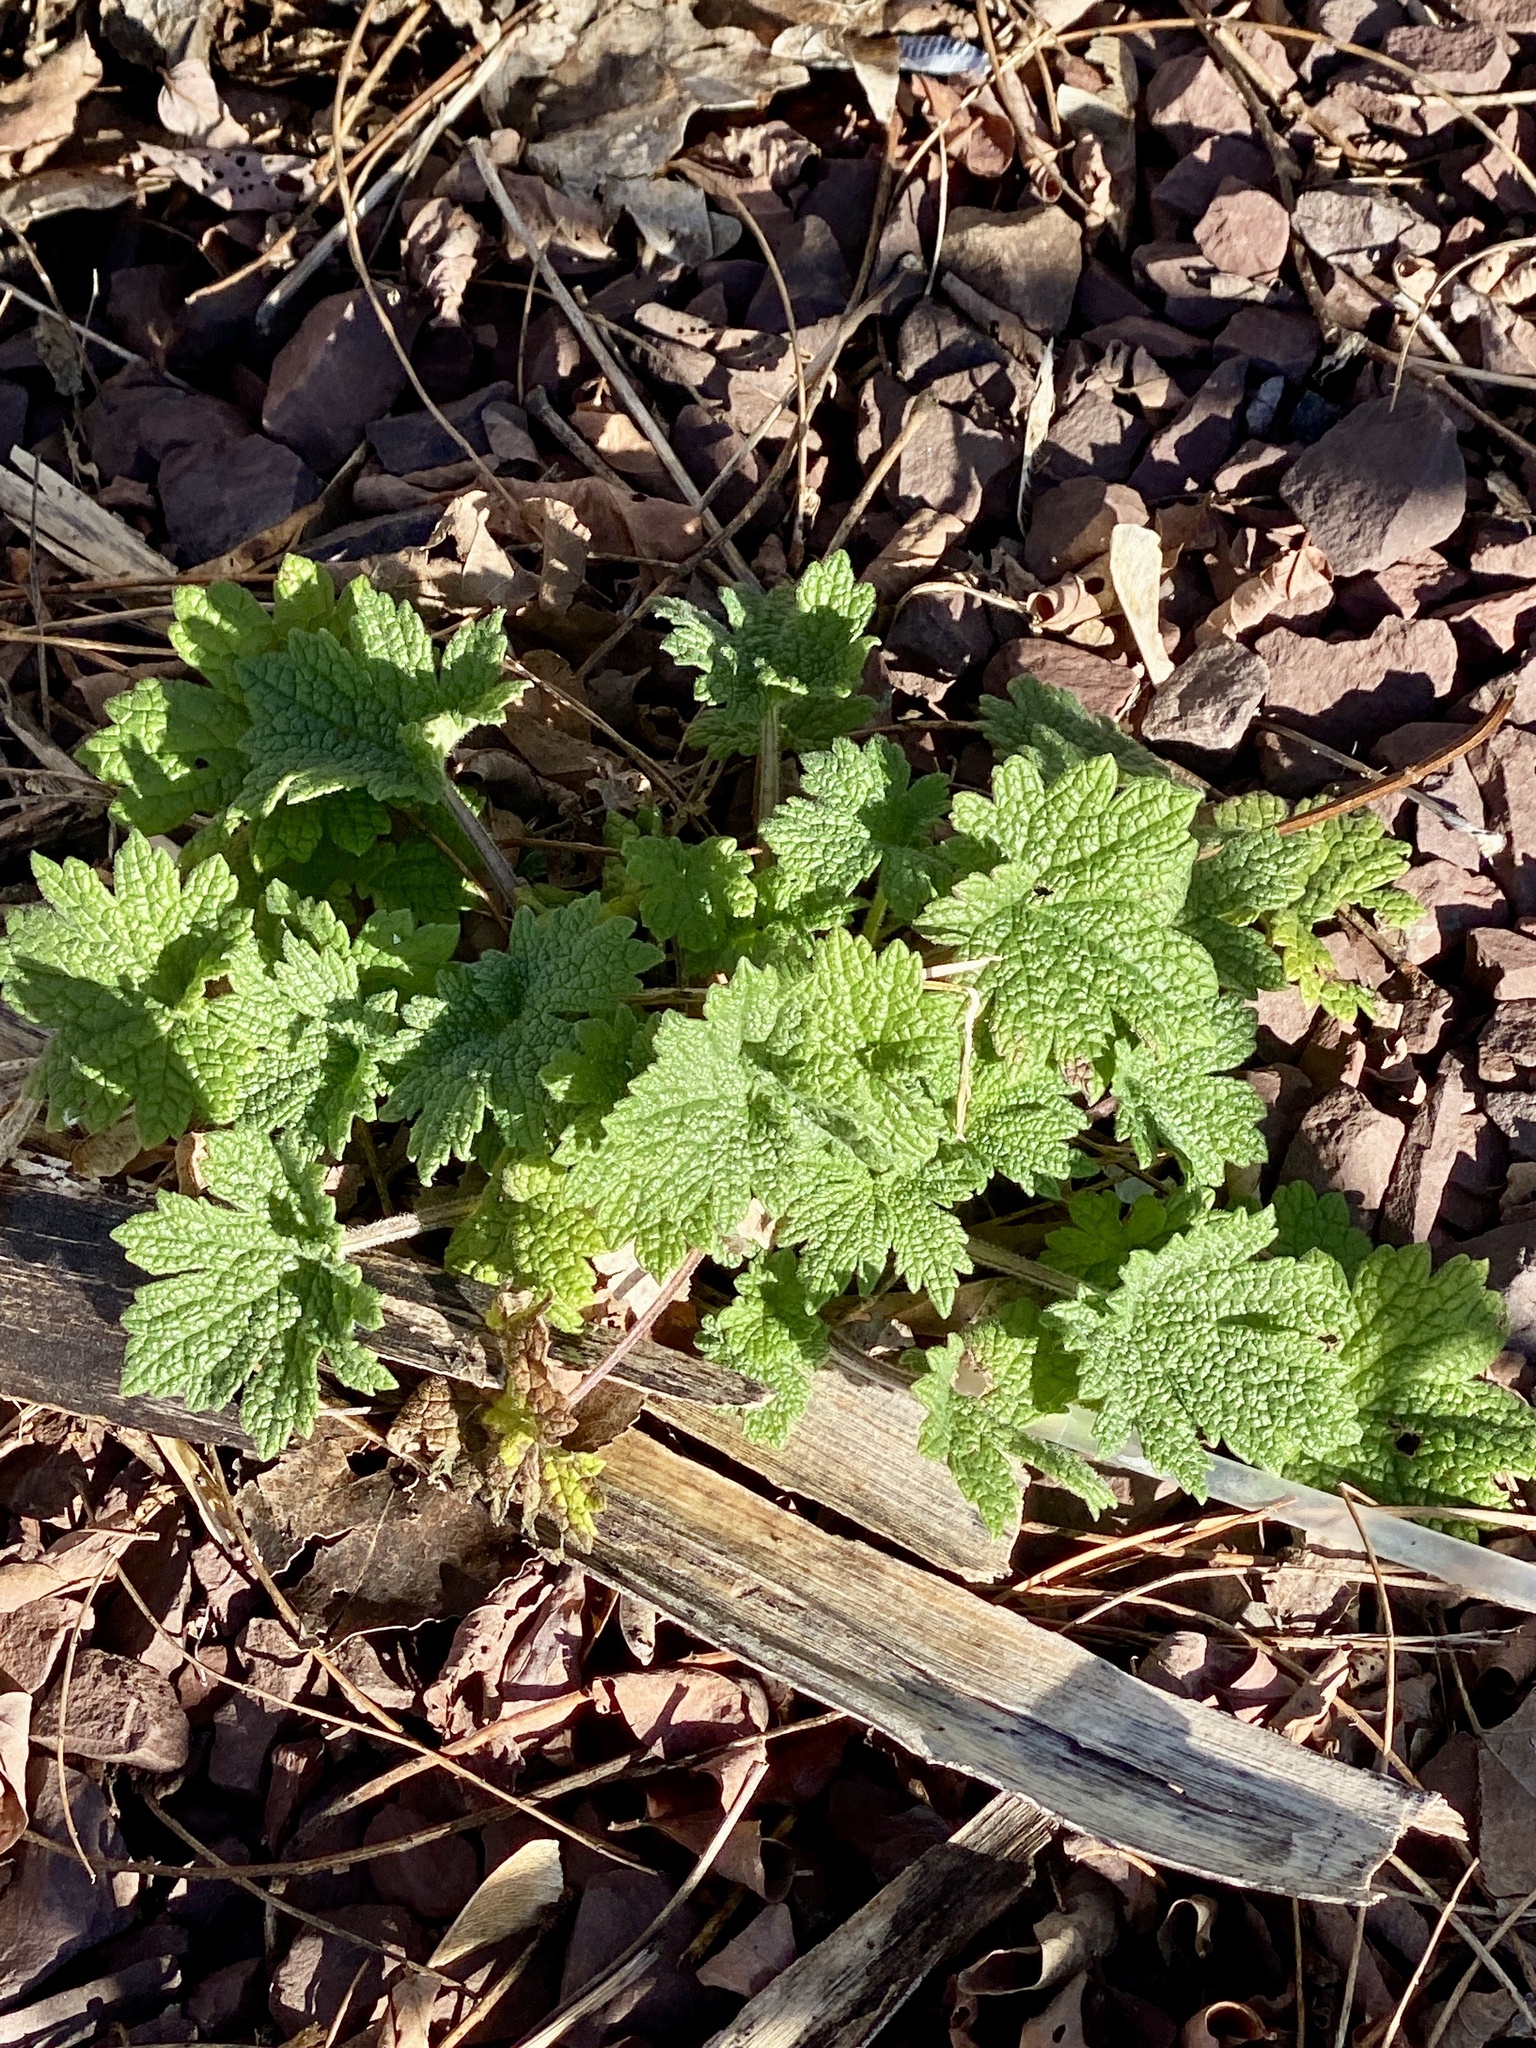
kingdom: Plantae
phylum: Tracheophyta
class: Magnoliopsida
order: Lamiales
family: Lamiaceae
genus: Leonurus
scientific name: Leonurus cardiaca
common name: Motherwort
